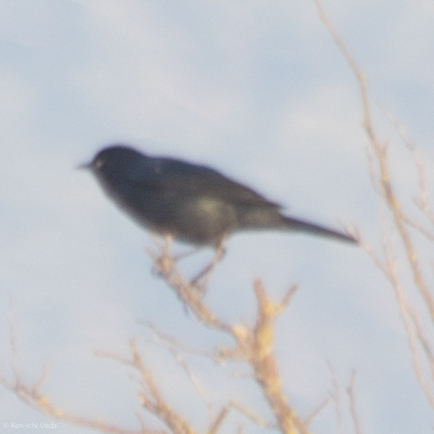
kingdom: Animalia
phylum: Chordata
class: Aves
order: Passeriformes
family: Icteridae
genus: Euphagus
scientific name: Euphagus cyanocephalus
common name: Brewer's blackbird
